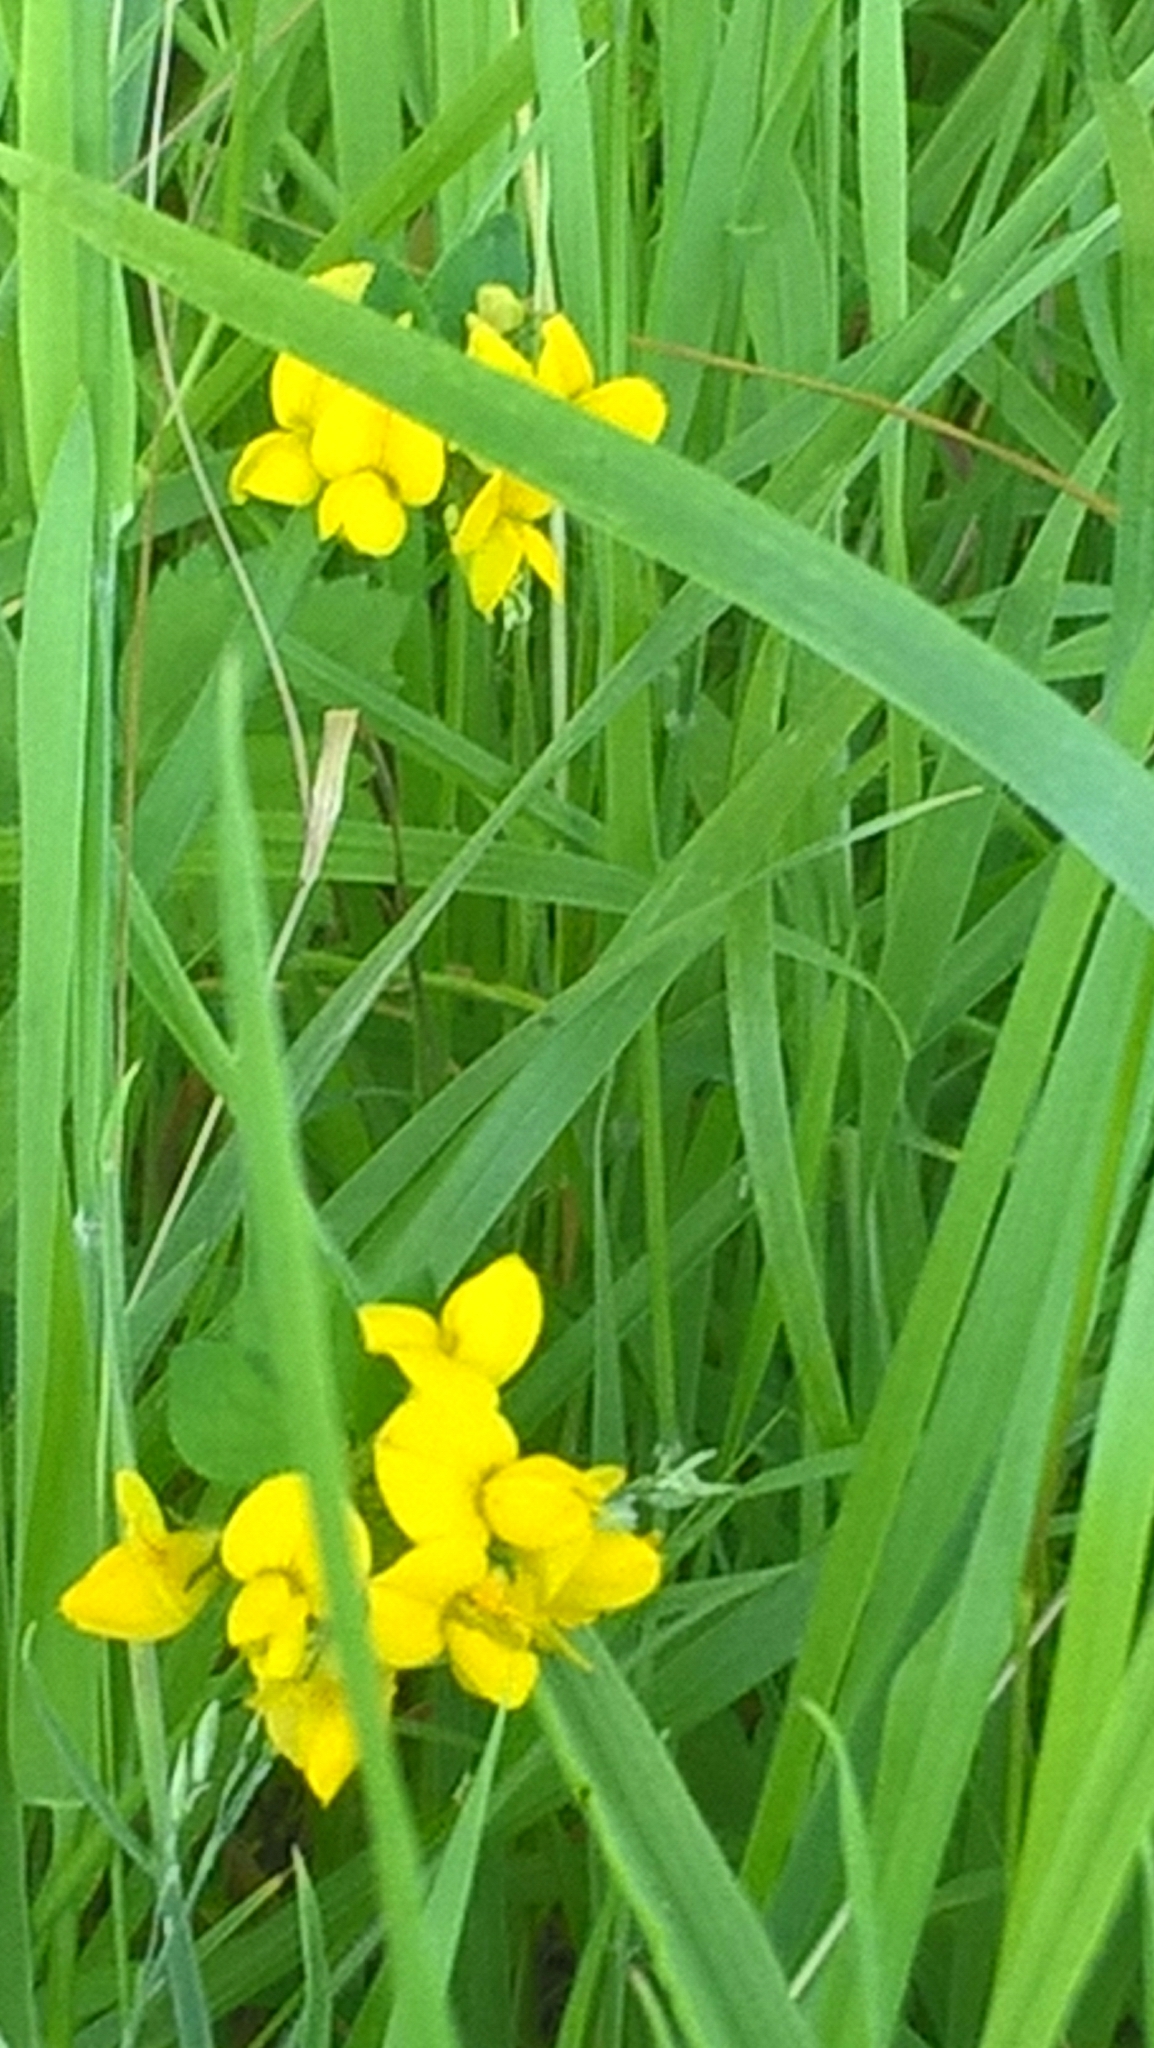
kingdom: Plantae
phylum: Tracheophyta
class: Magnoliopsida
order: Fabales
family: Fabaceae
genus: Lathyrus
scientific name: Lathyrus pratensis
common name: Meadow vetchling
